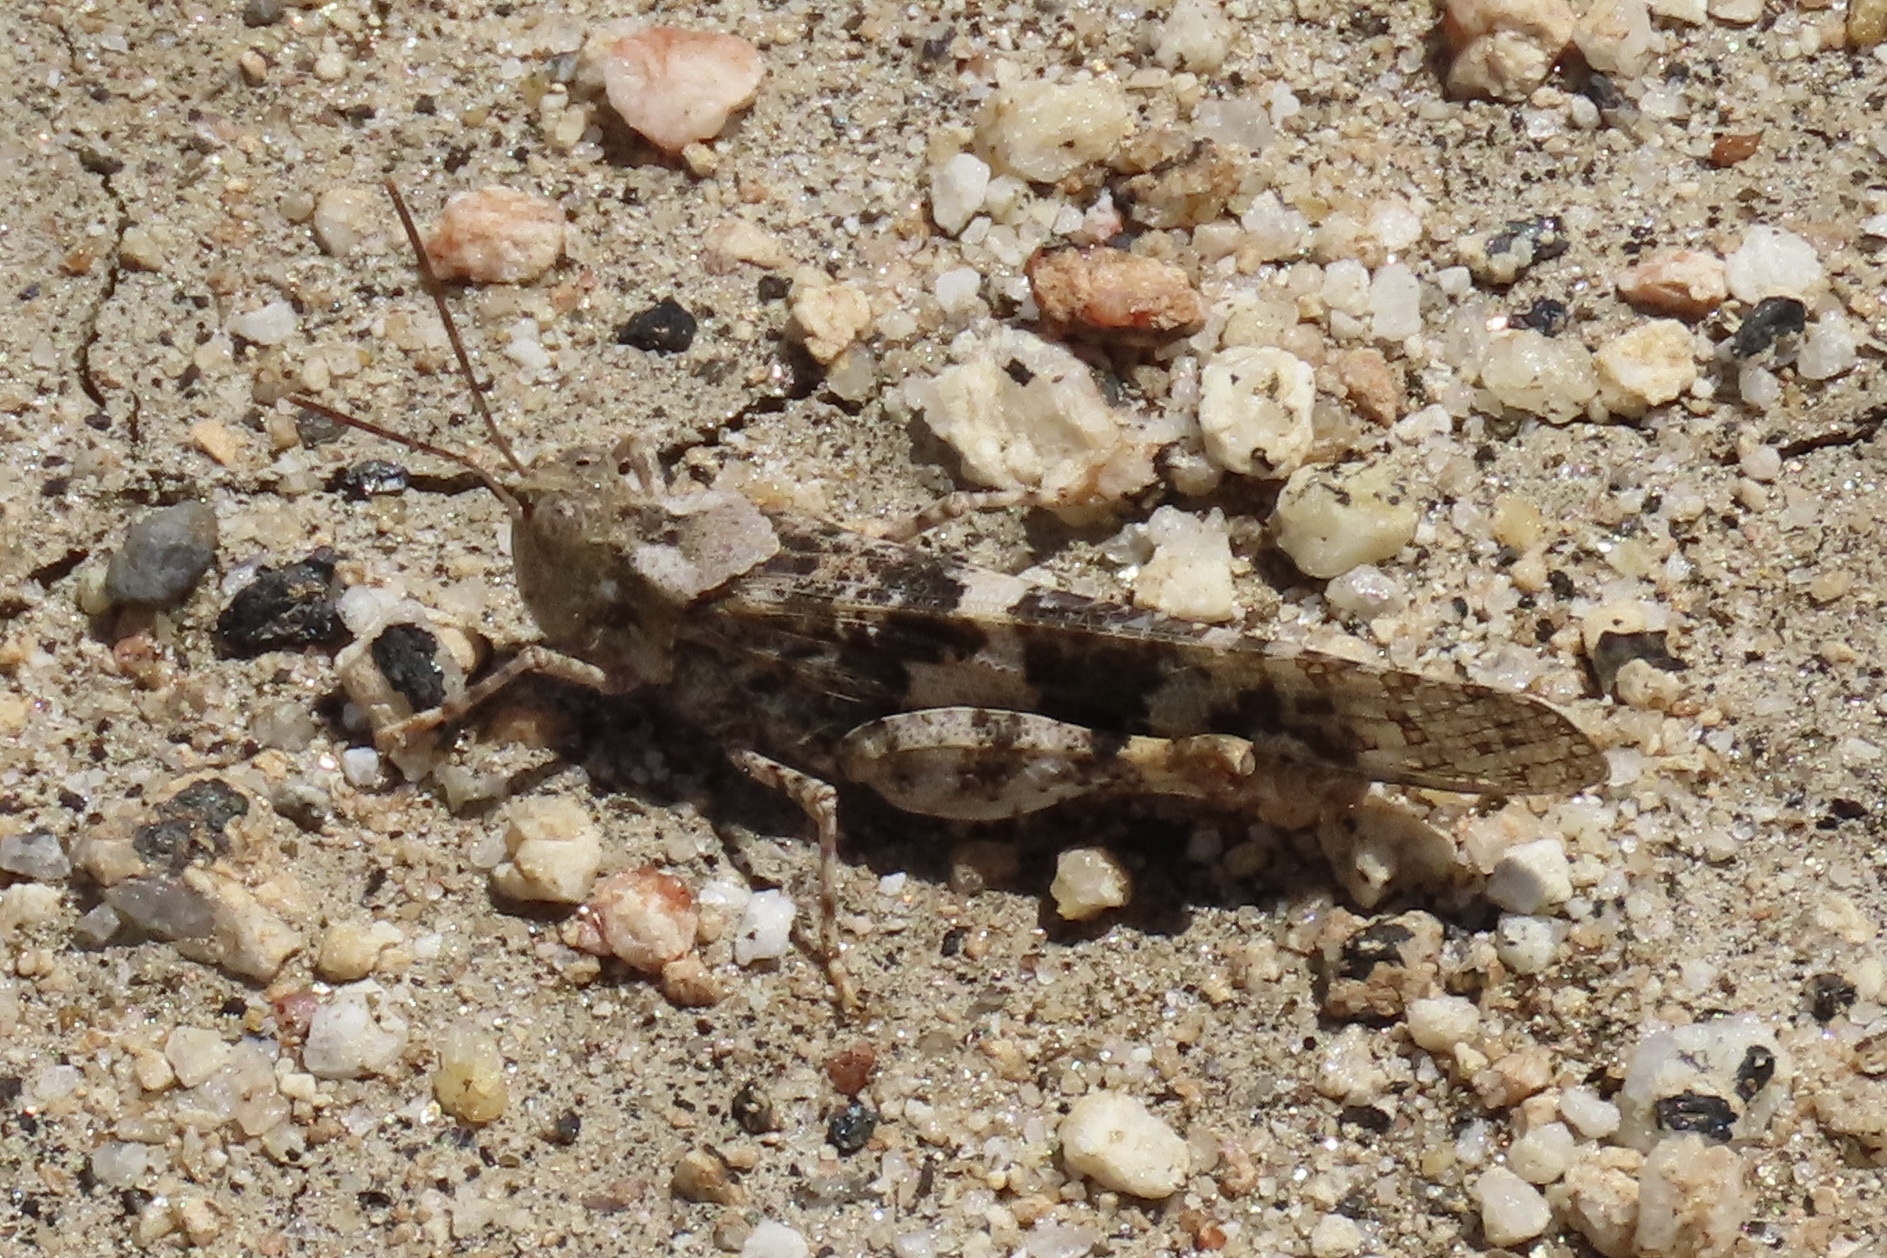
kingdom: Animalia
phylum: Arthropoda
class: Insecta
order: Orthoptera
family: Acrididae
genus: Trimerotropis
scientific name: Trimerotropis pallidipennis
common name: Pallid-winged grasshopper
